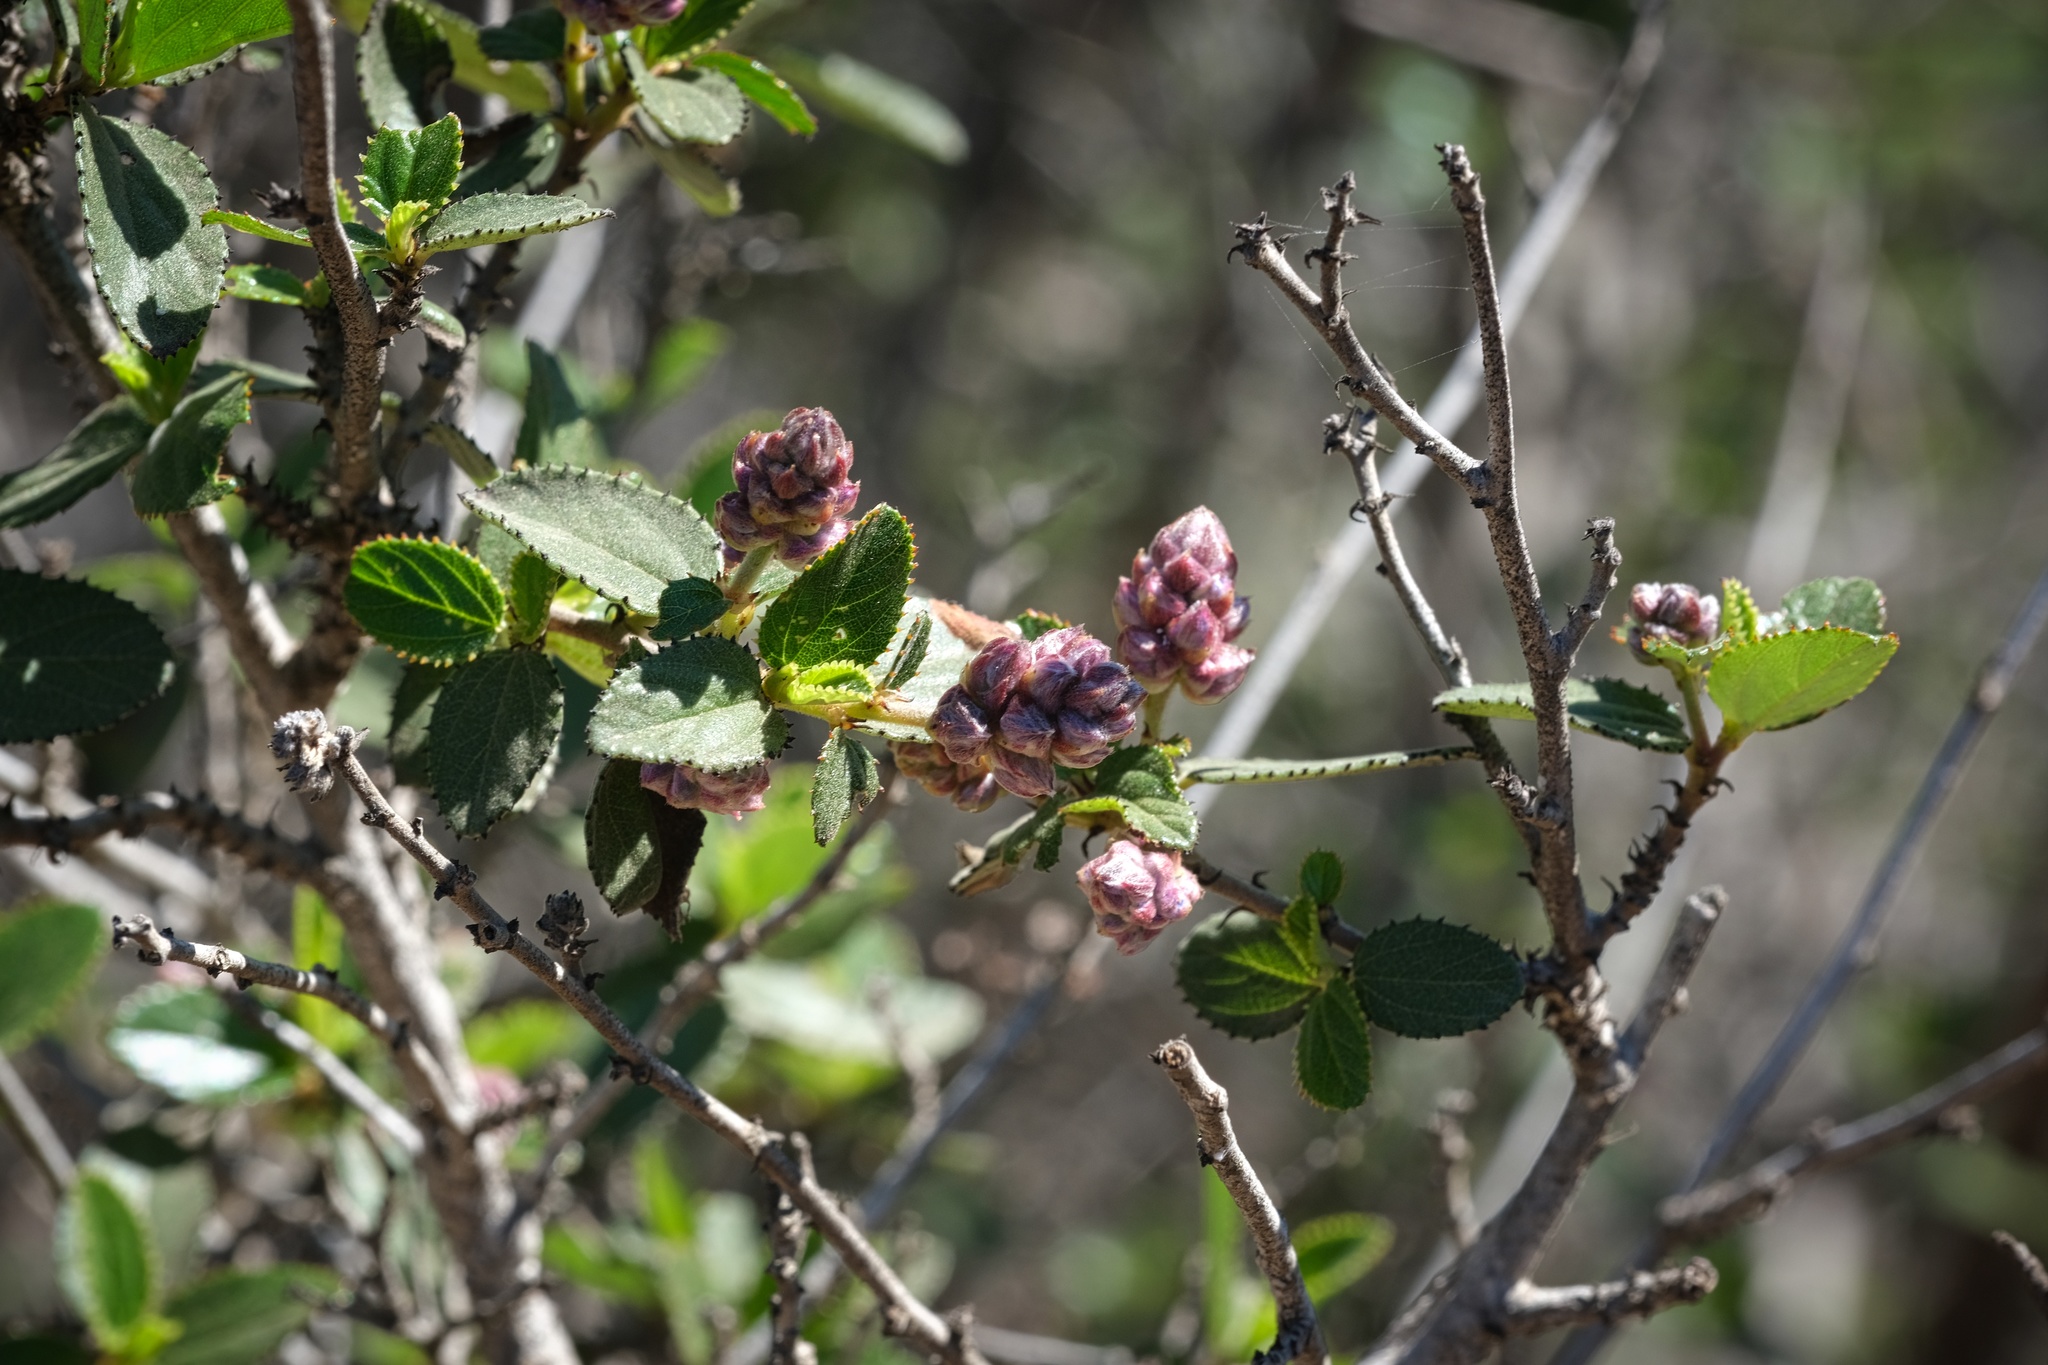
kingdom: Plantae
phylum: Tracheophyta
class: Magnoliopsida
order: Rosales
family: Rhamnaceae
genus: Ceanothus
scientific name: Ceanothus tomentosus
